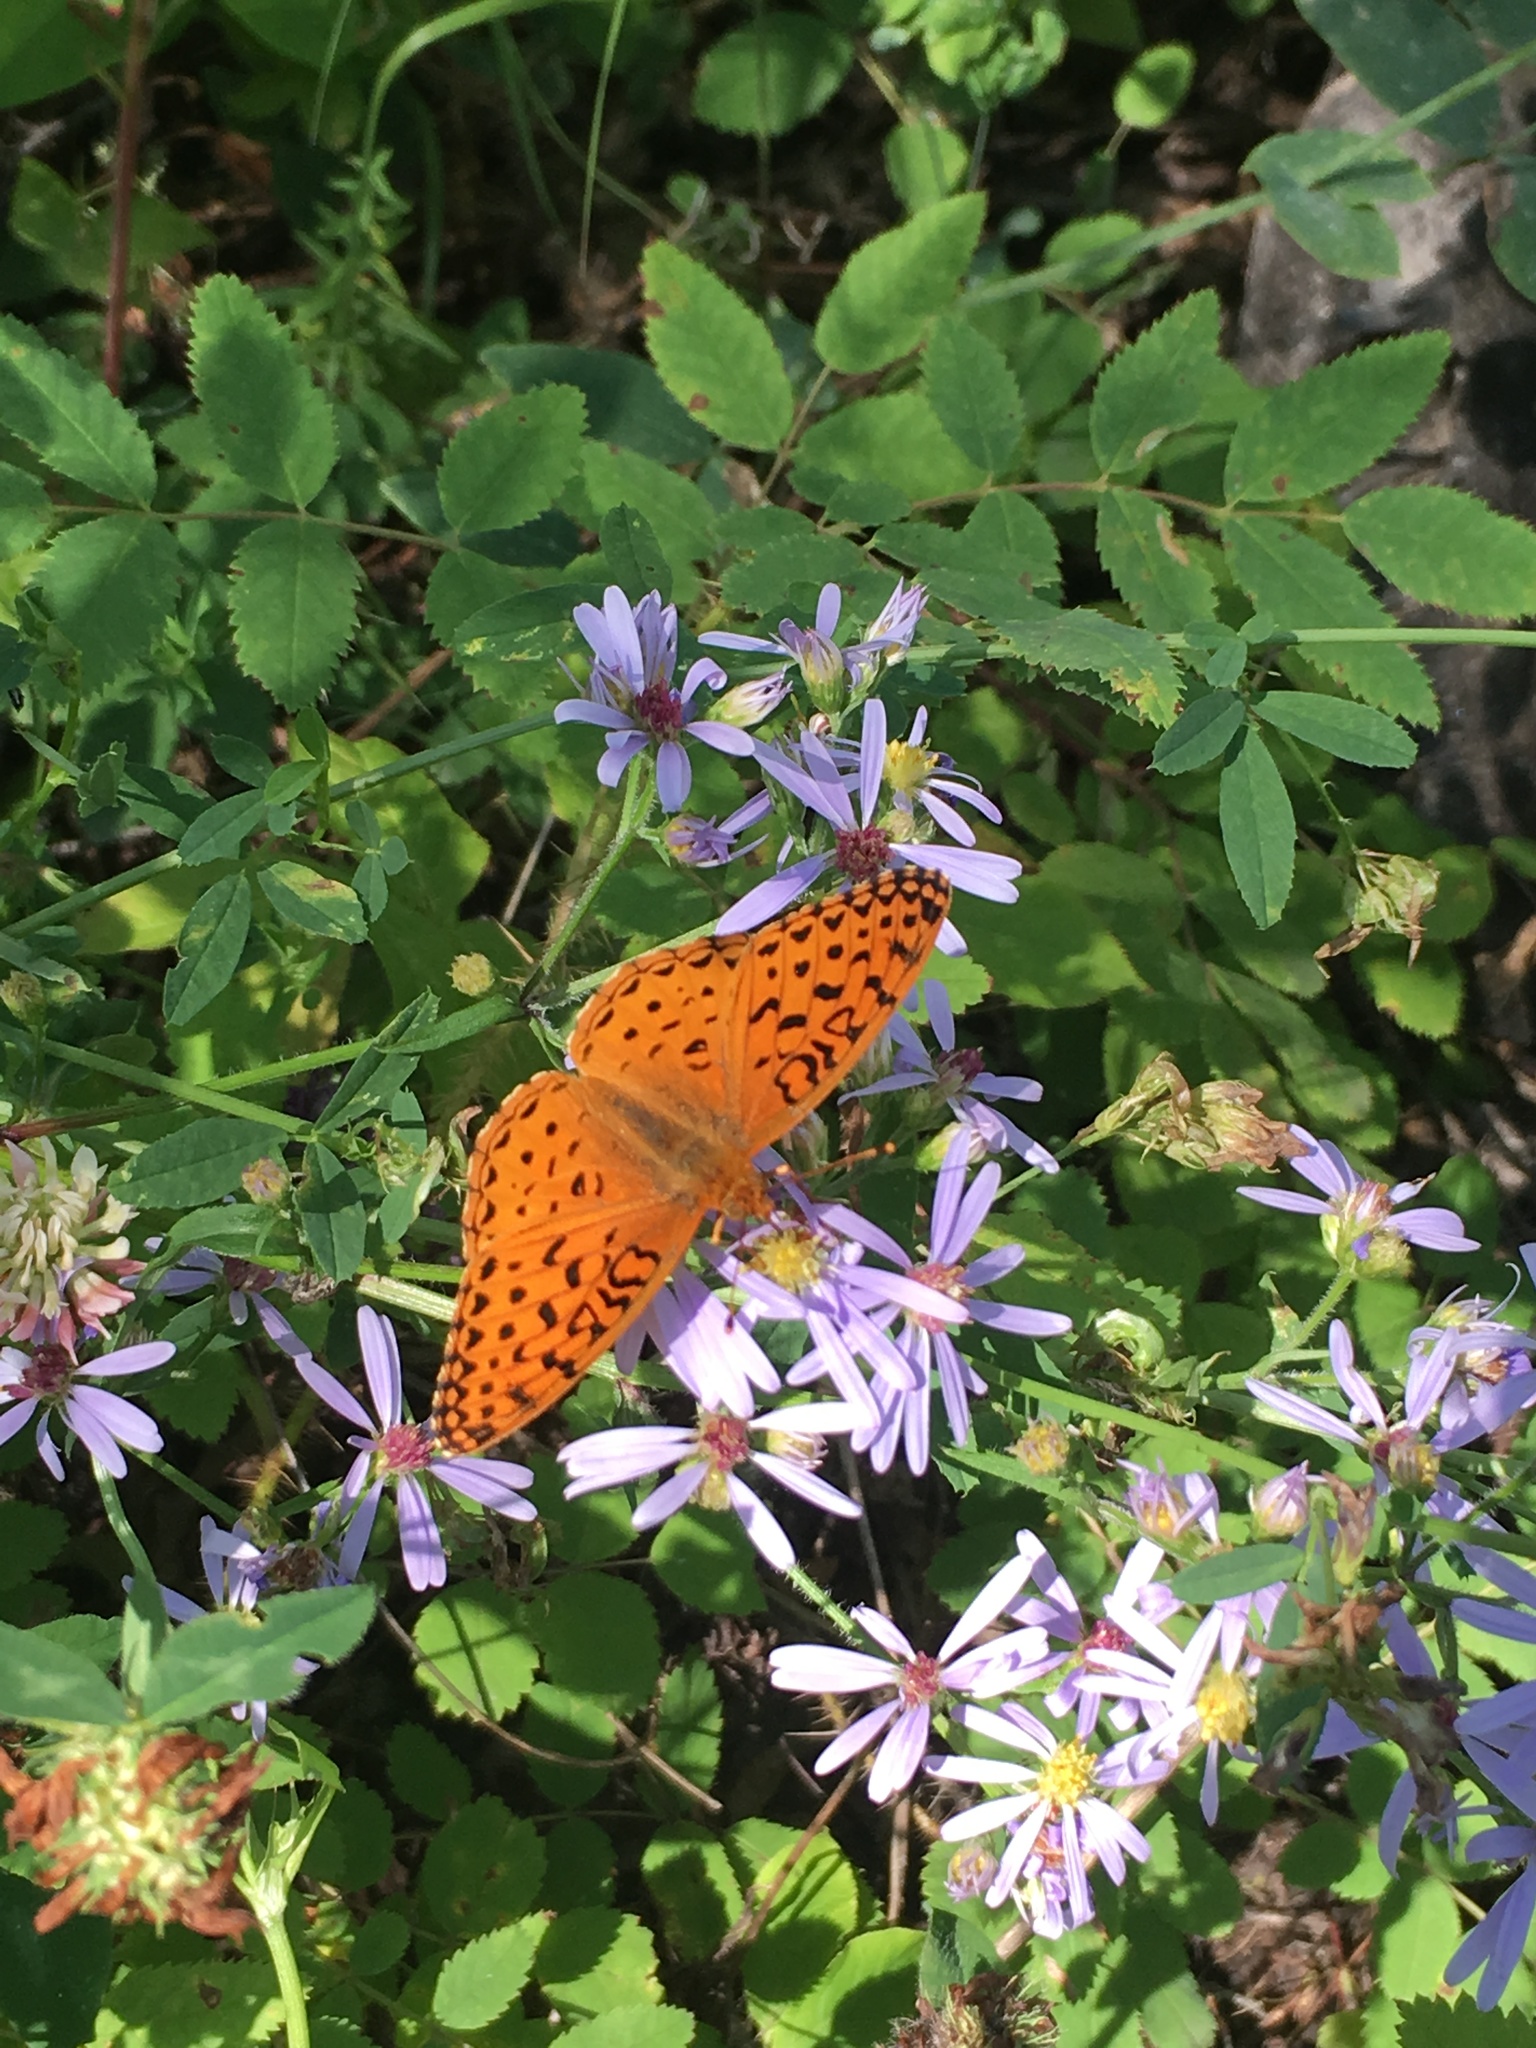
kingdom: Animalia
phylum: Arthropoda
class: Insecta
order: Lepidoptera
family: Nymphalidae
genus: Speyeria
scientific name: Speyeria aphrodite
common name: Aphrodite friitllary
